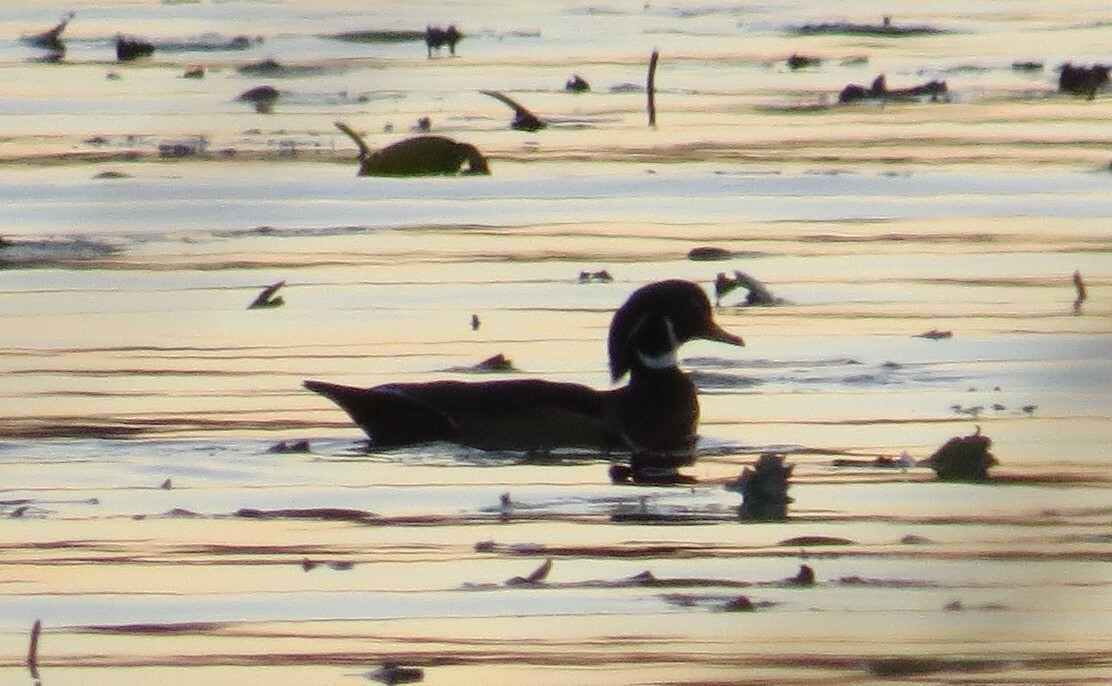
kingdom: Animalia
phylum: Chordata
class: Aves
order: Anseriformes
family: Anatidae
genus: Aix
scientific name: Aix sponsa
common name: Wood duck
